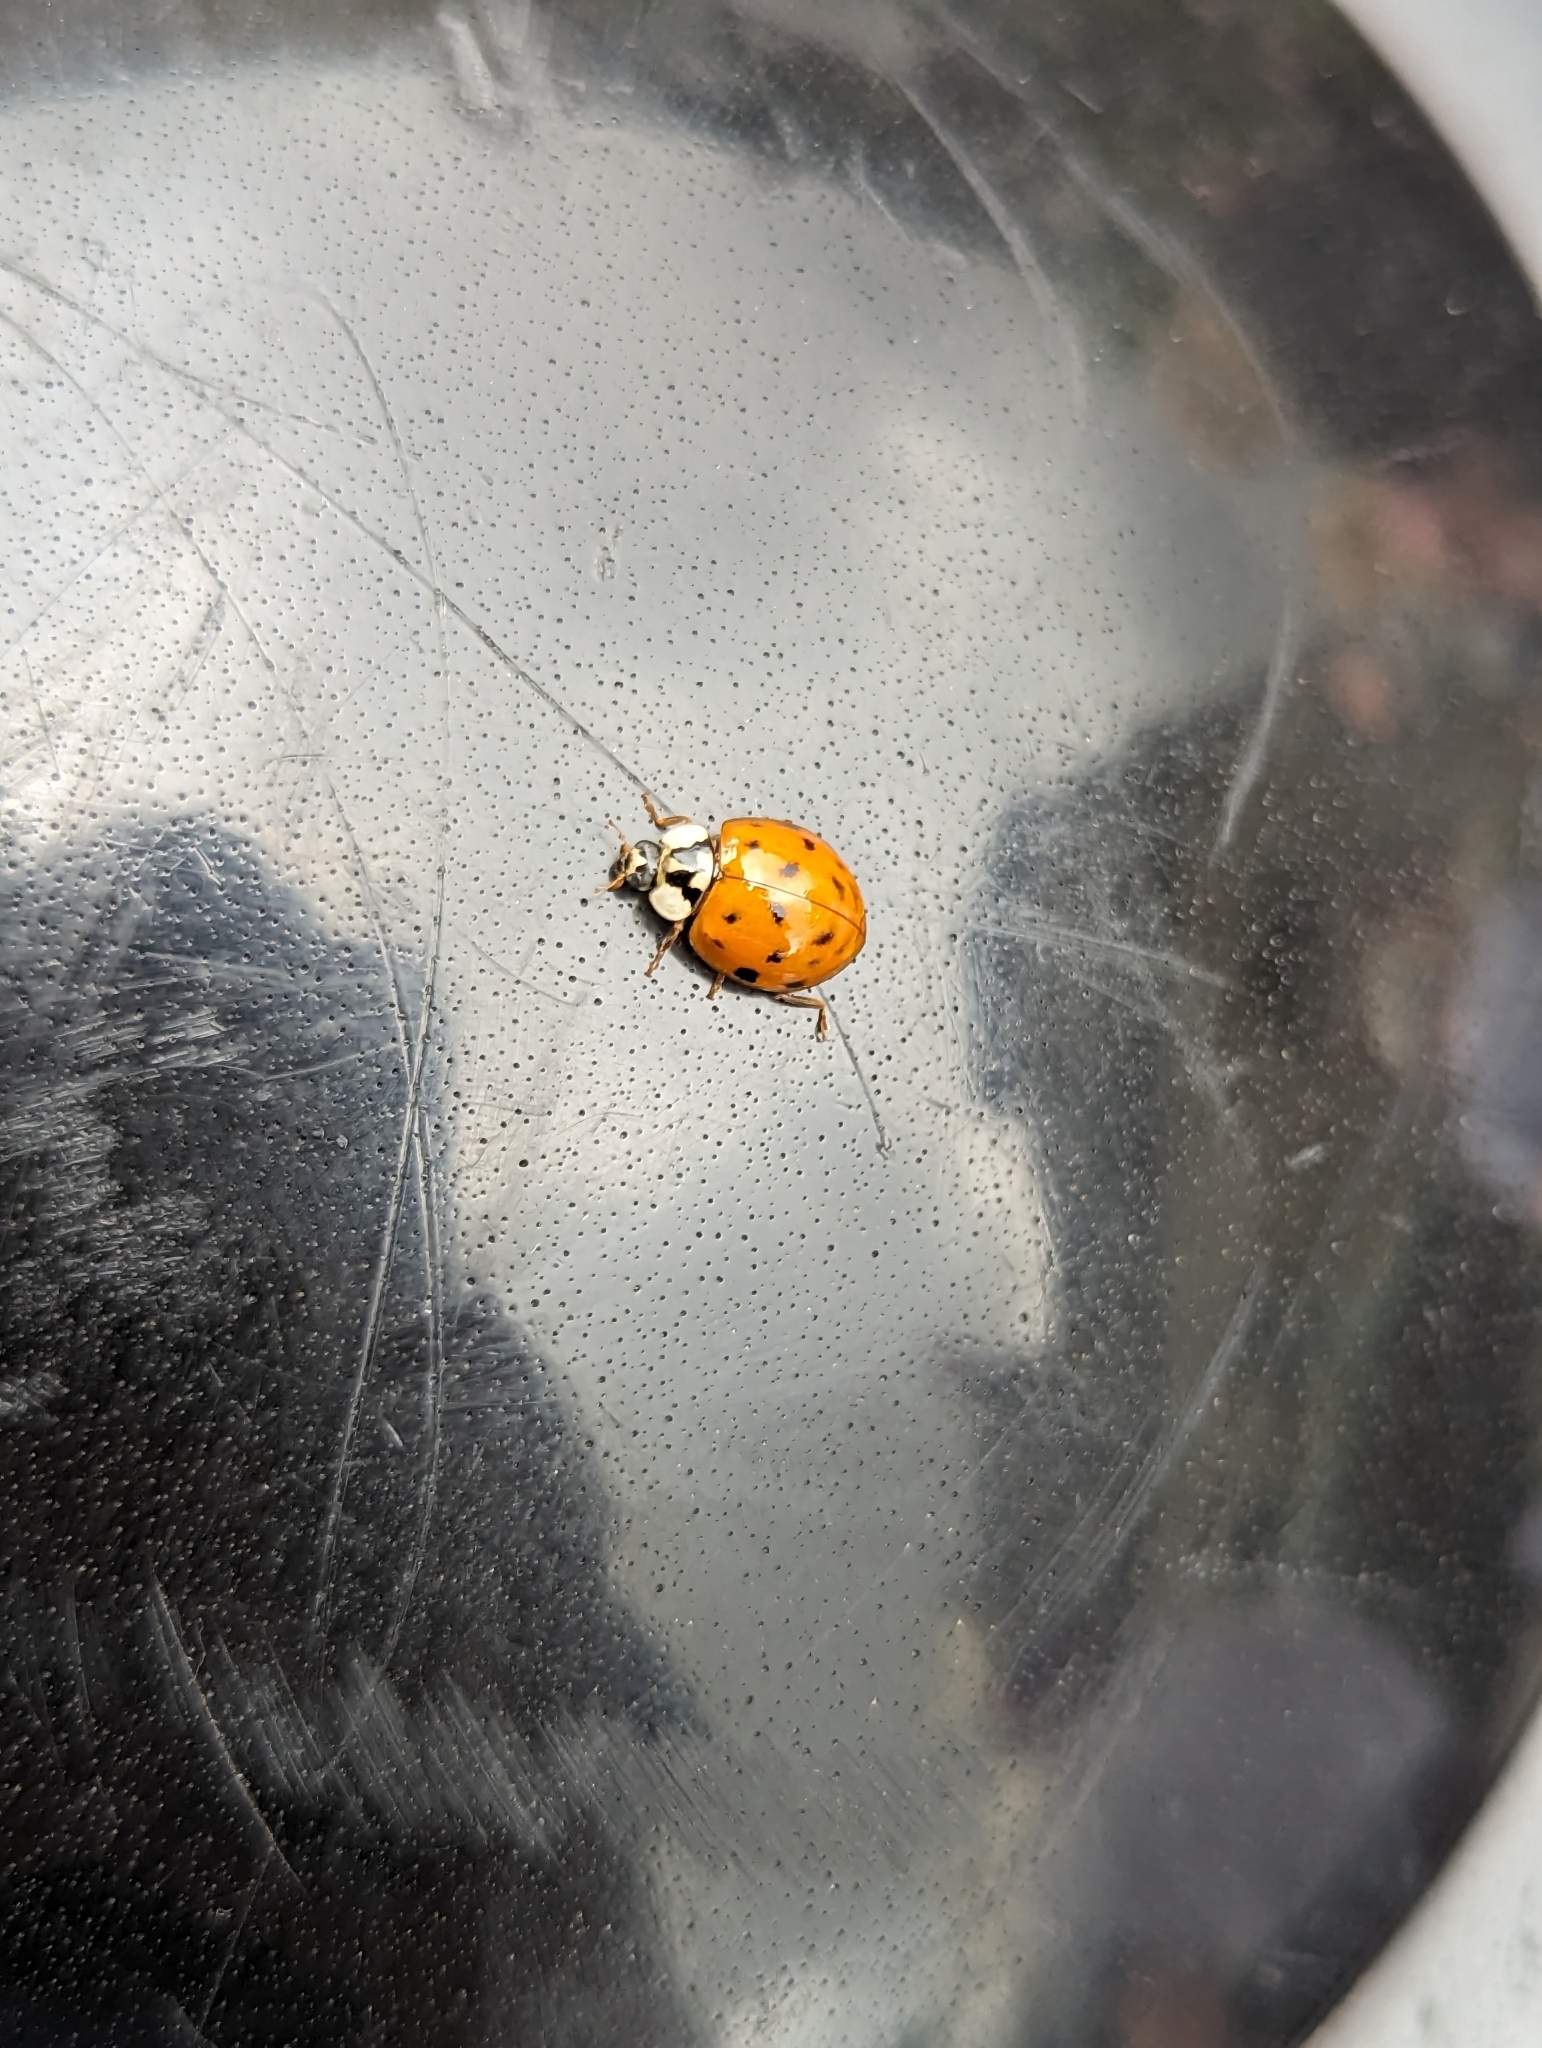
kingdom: Animalia
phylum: Arthropoda
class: Insecta
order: Coleoptera
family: Coccinellidae
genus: Harmonia
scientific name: Harmonia axyridis
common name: Harlequin ladybird
